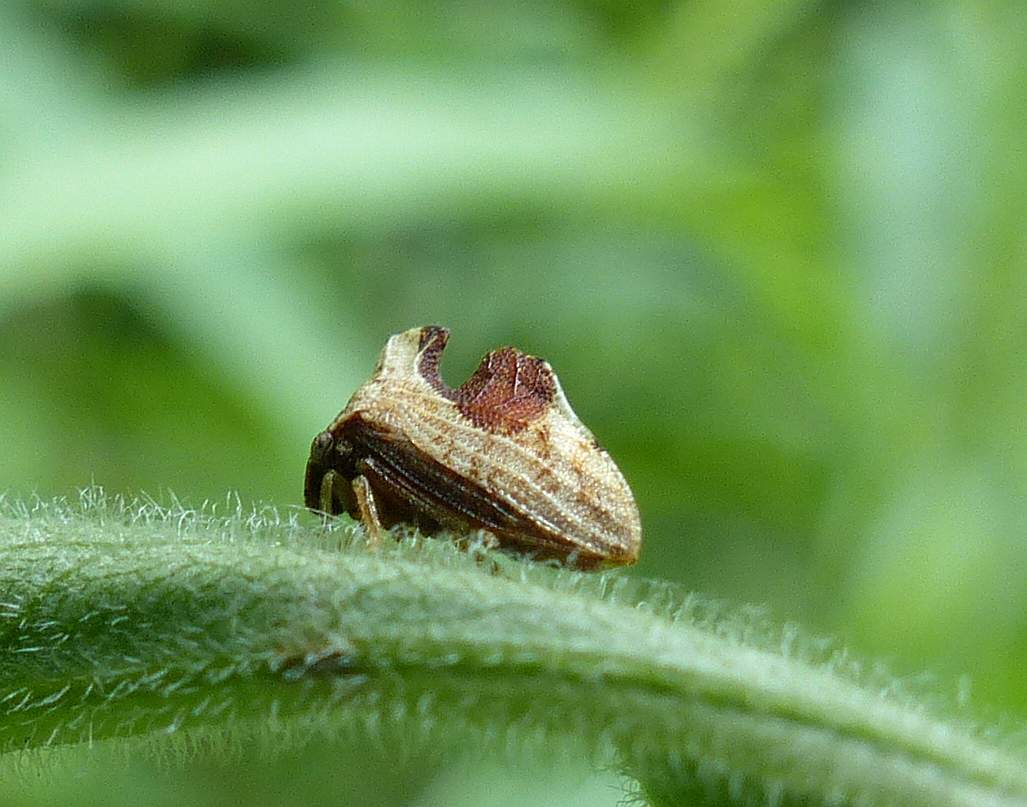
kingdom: Animalia
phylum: Arthropoda
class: Insecta
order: Hemiptera
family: Membracidae
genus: Entylia
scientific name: Entylia carinata
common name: Keeled treehopper
